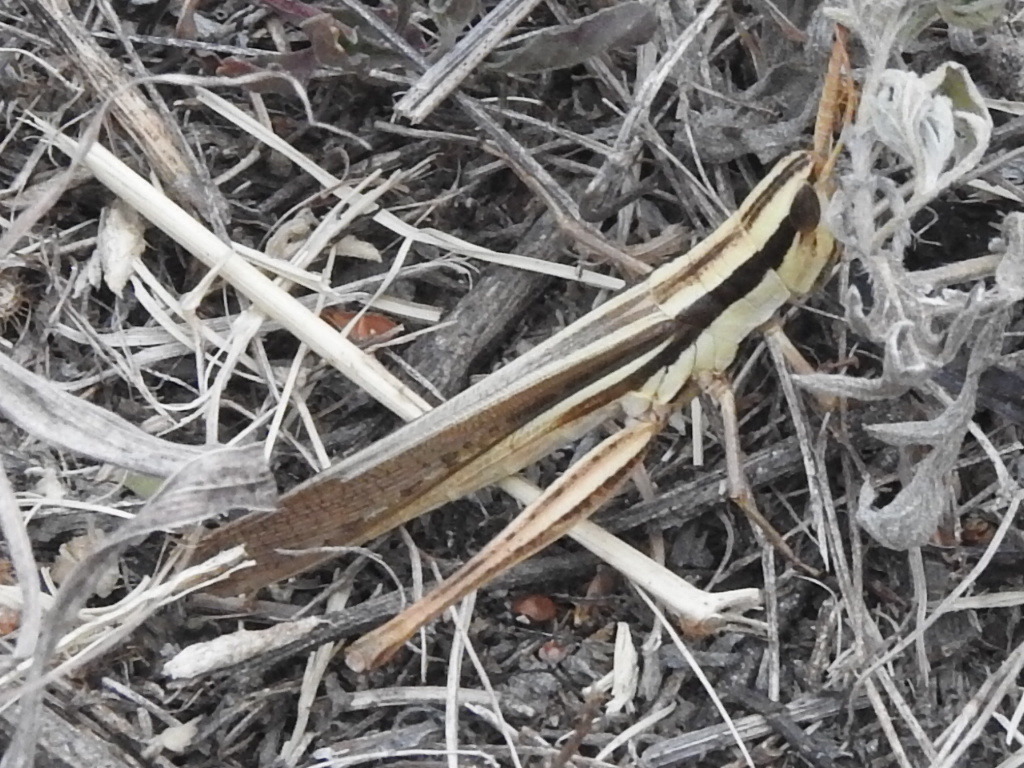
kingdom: Animalia
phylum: Arthropoda
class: Insecta
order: Orthoptera
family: Acrididae
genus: Mermiria
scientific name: Mermiria bivittata
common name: Two-striped mermiria grasshopper
